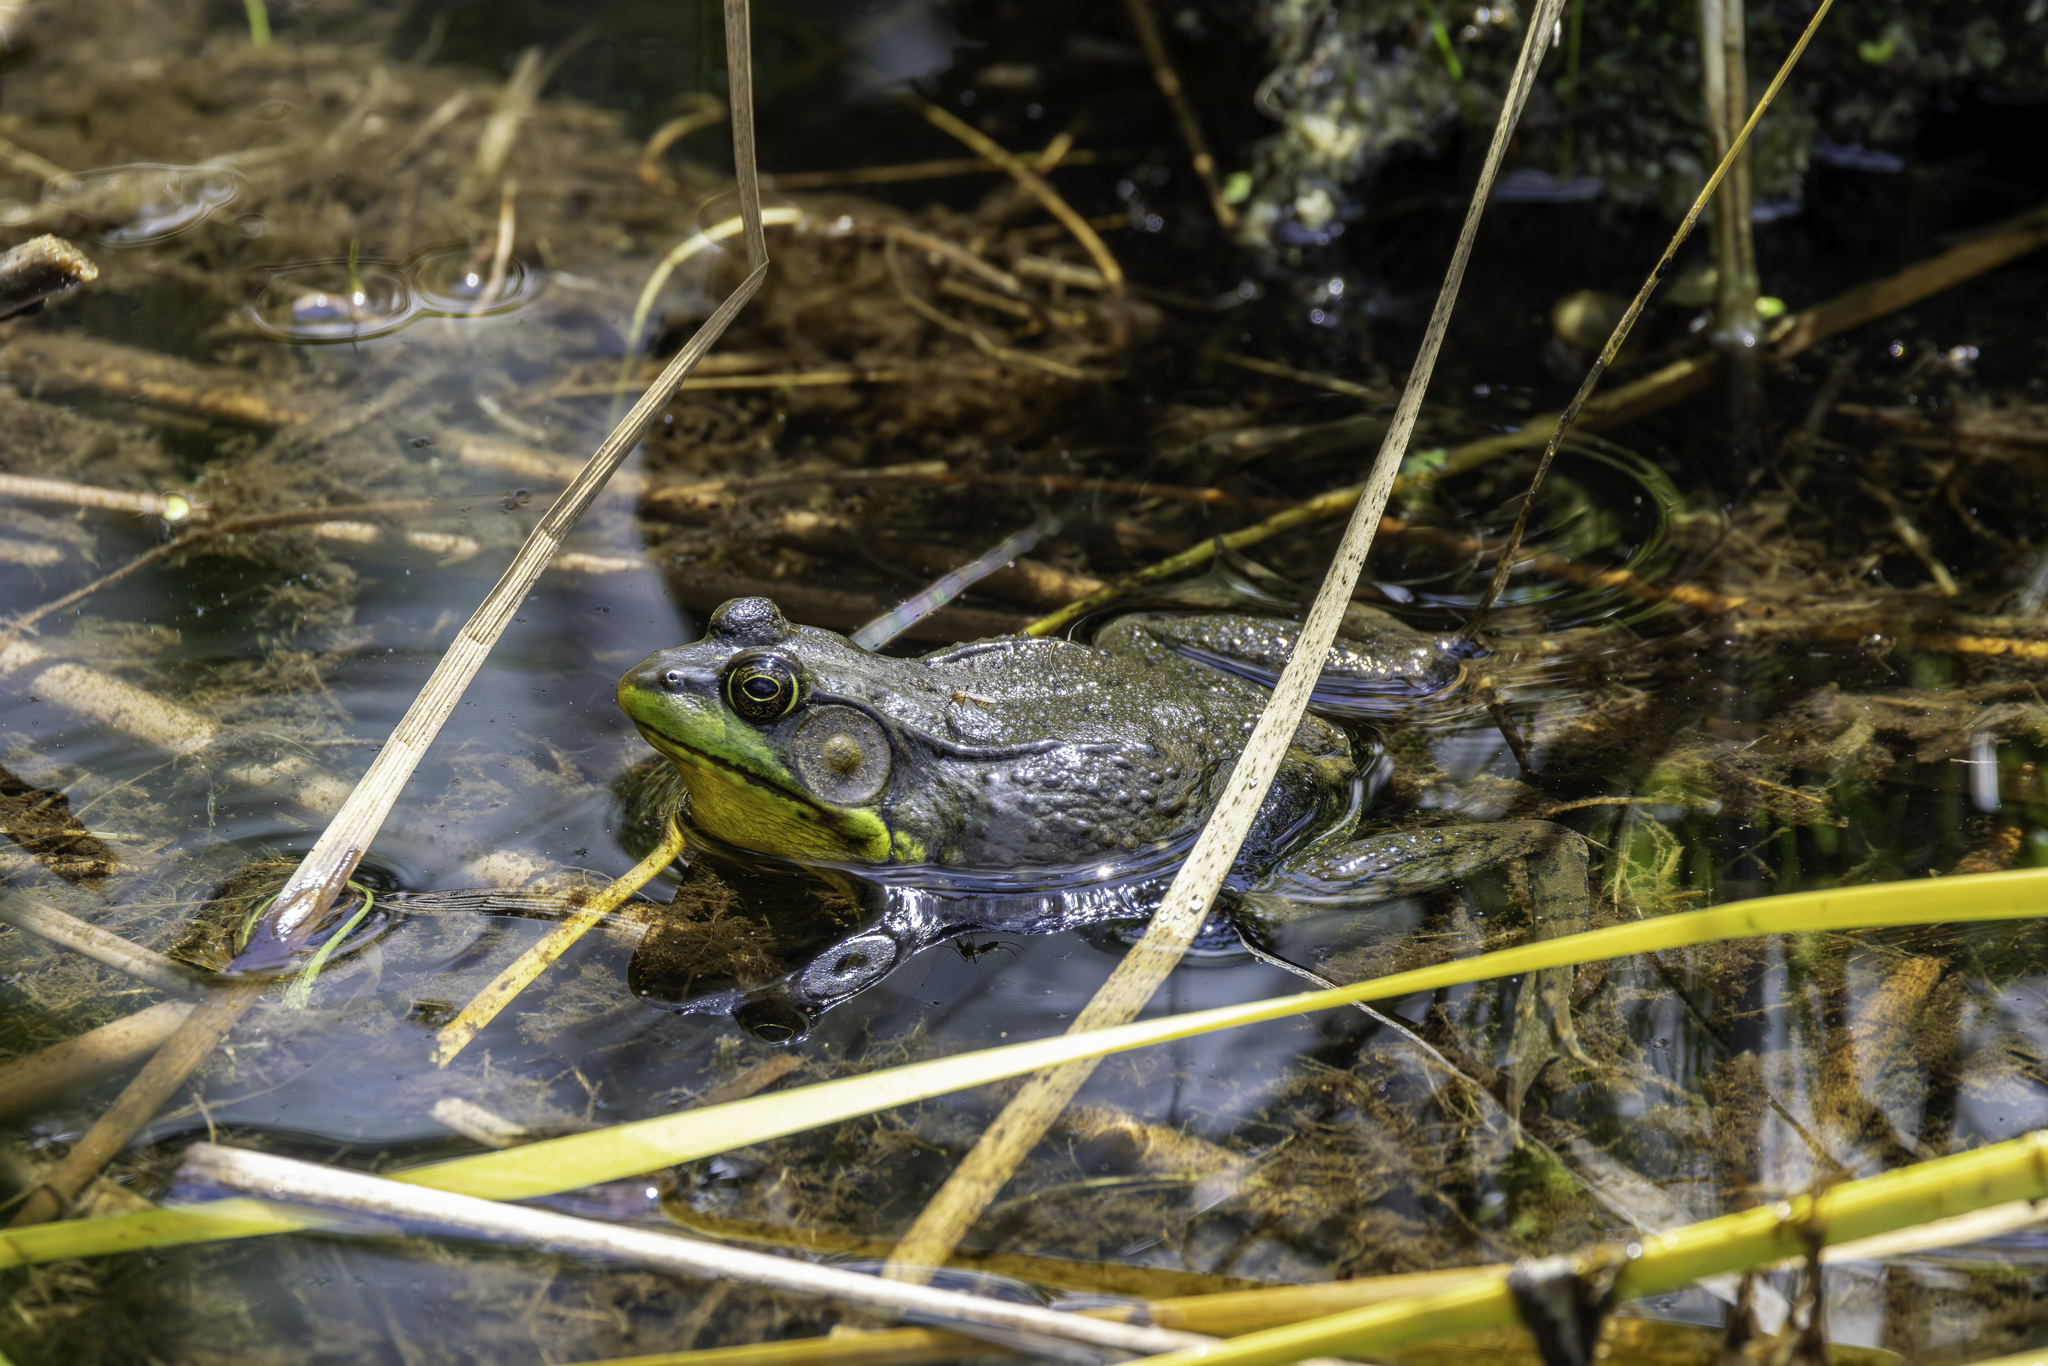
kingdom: Animalia
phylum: Chordata
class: Amphibia
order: Anura
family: Ranidae
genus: Lithobates
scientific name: Lithobates clamitans
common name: Green frog
